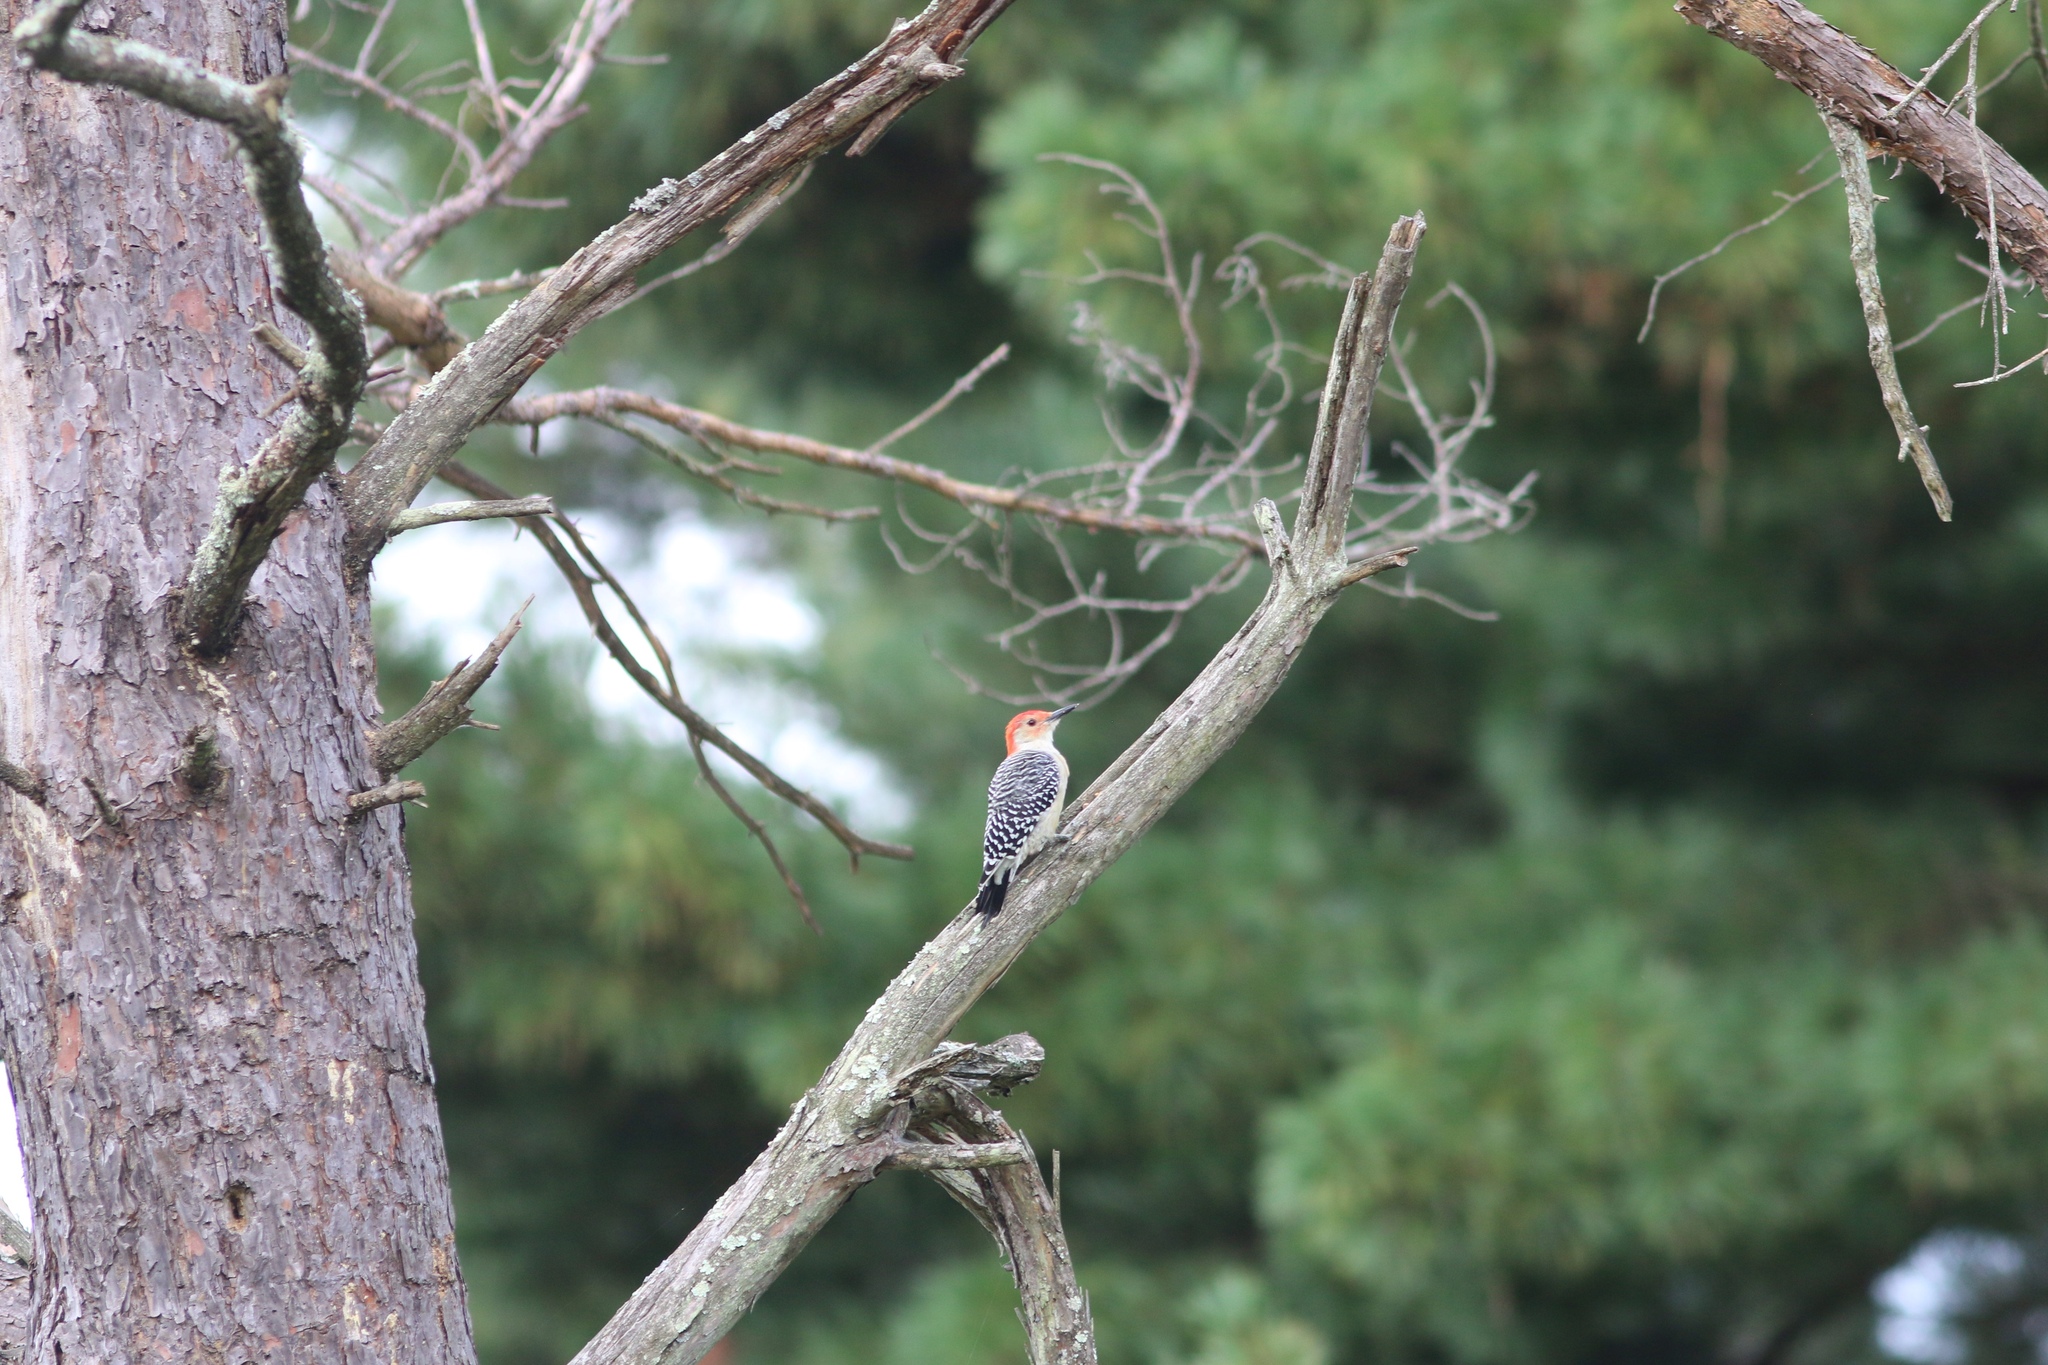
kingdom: Animalia
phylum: Chordata
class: Aves
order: Piciformes
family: Picidae
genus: Melanerpes
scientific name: Melanerpes carolinus
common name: Red-bellied woodpecker
